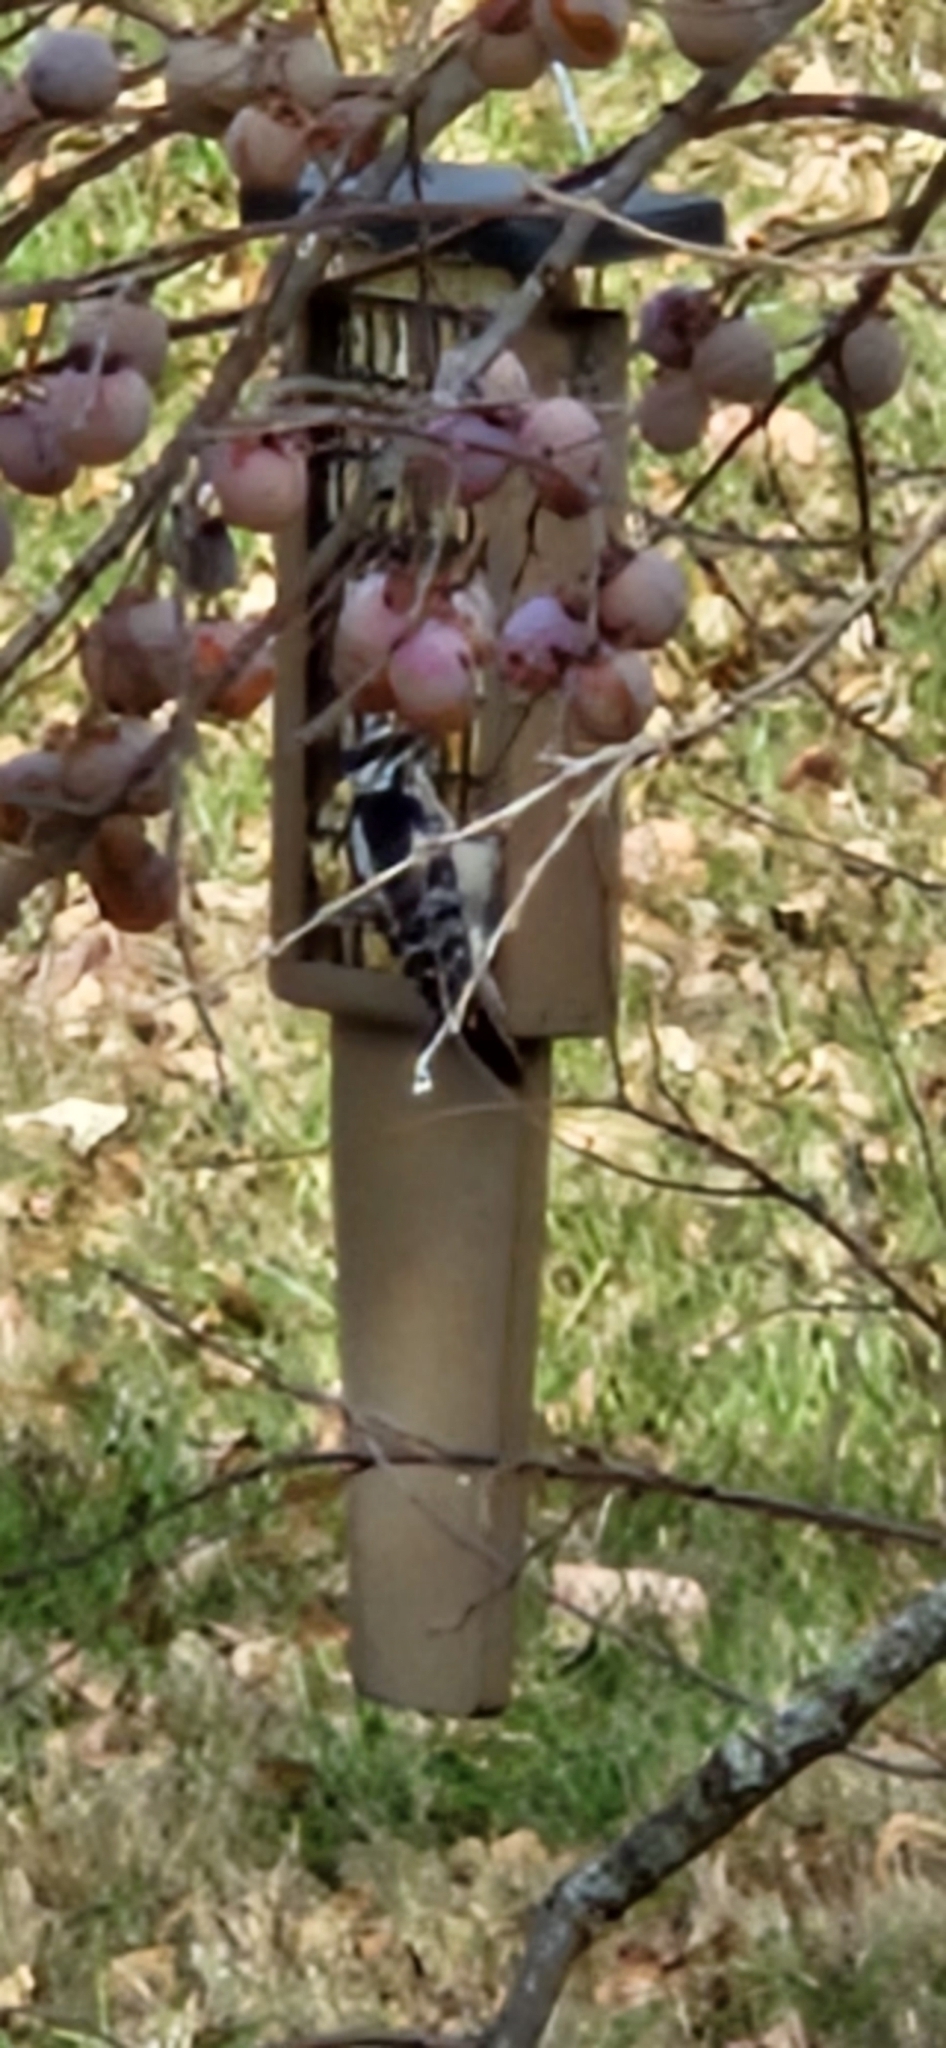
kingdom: Animalia
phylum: Chordata
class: Aves
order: Piciformes
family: Picidae
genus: Dryobates
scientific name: Dryobates pubescens
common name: Downy woodpecker
